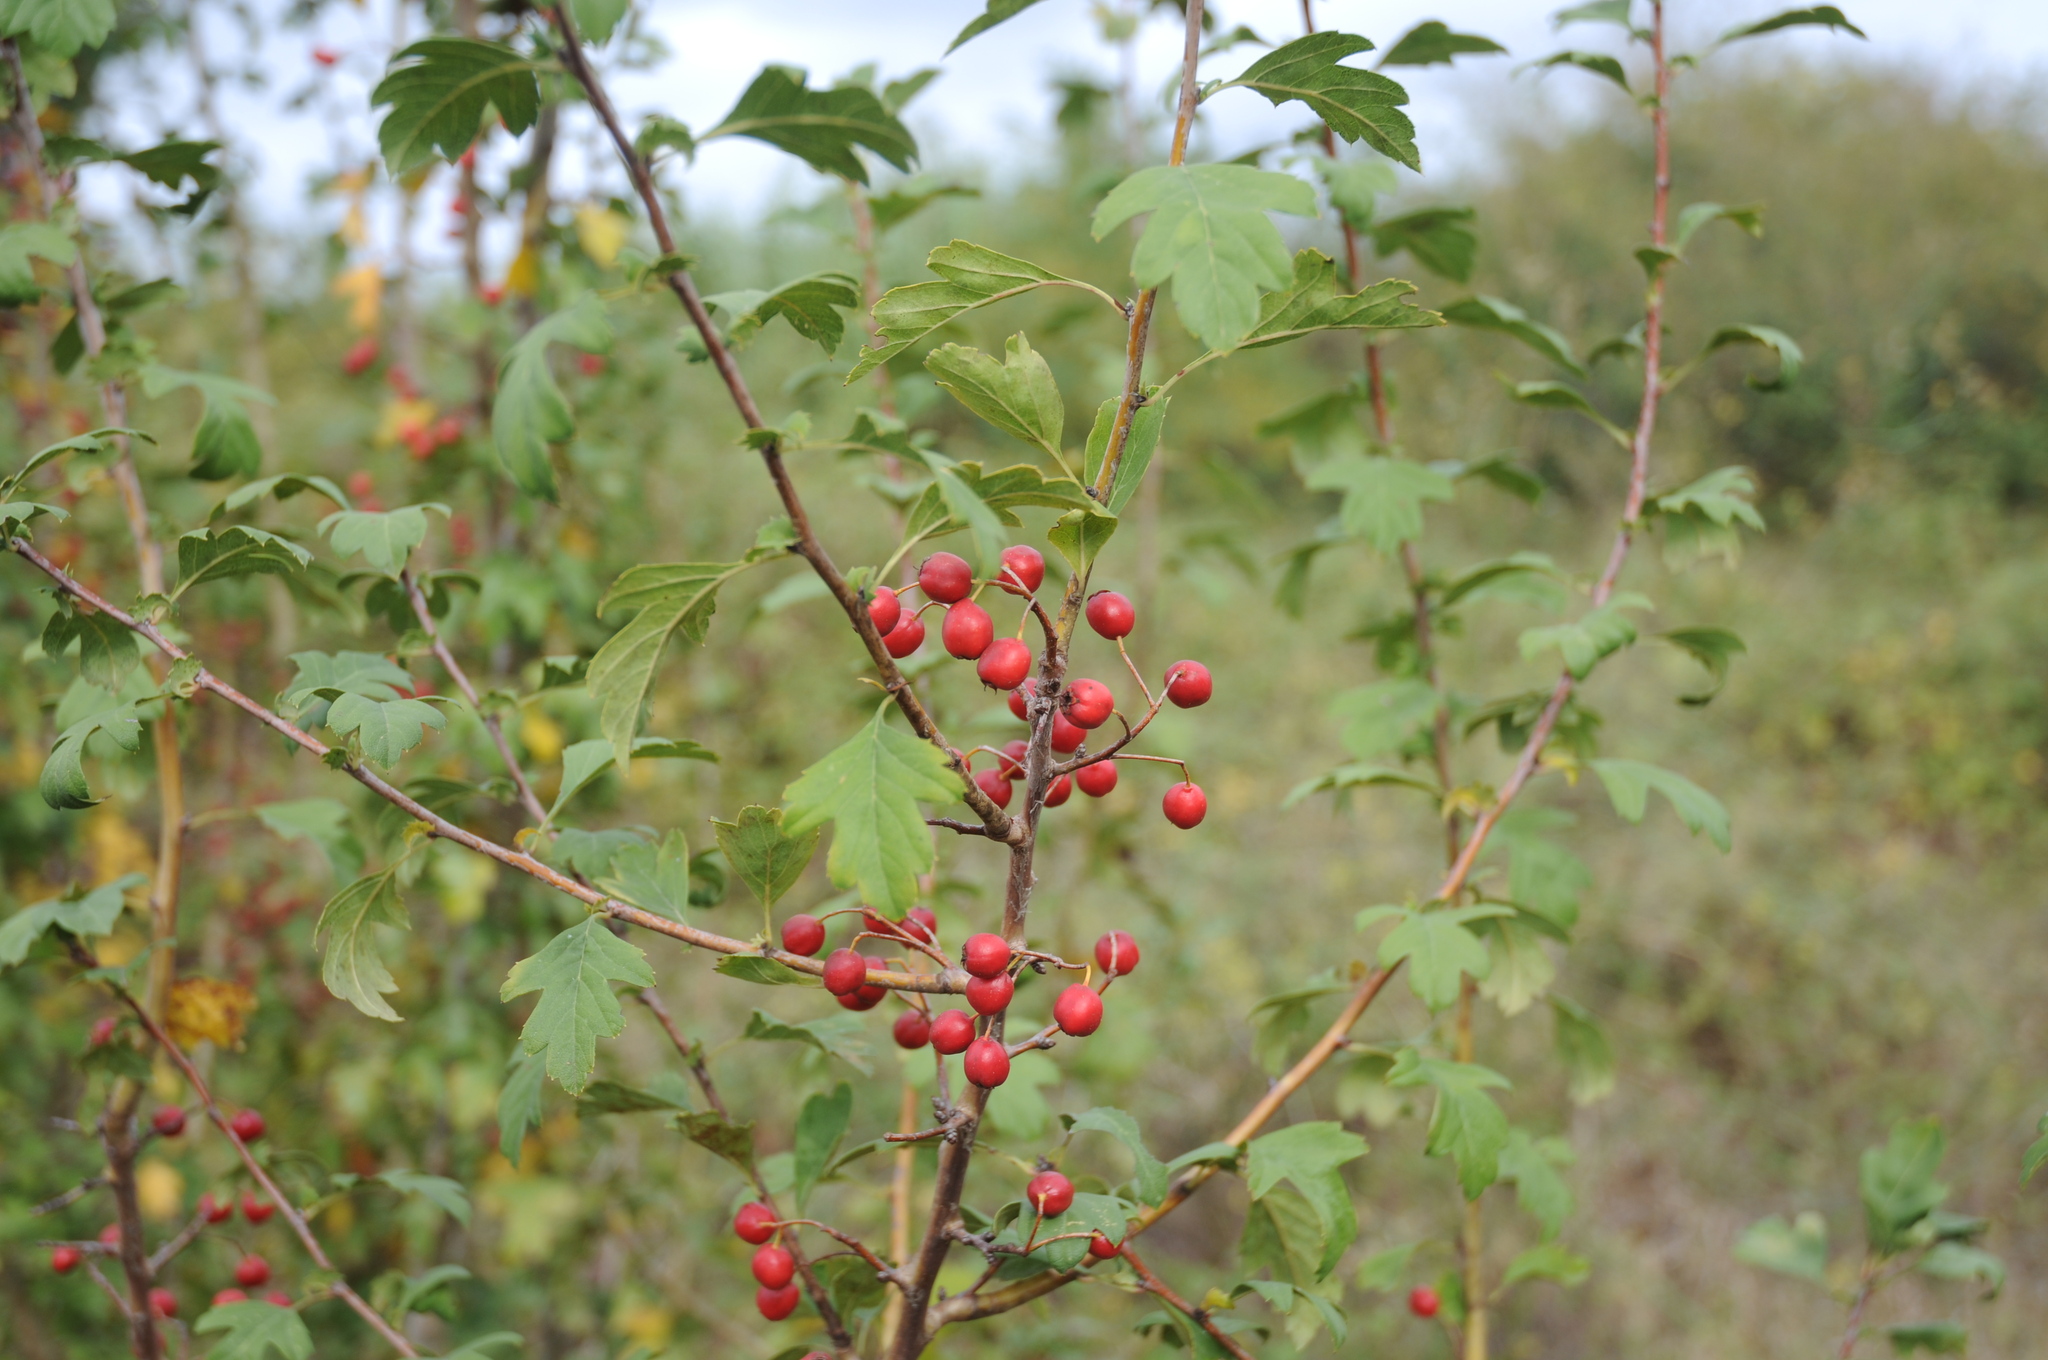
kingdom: Plantae
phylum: Tracheophyta
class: Magnoliopsida
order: Rosales
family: Rosaceae
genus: Crataegus
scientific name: Crataegus monogyna
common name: Hawthorn
